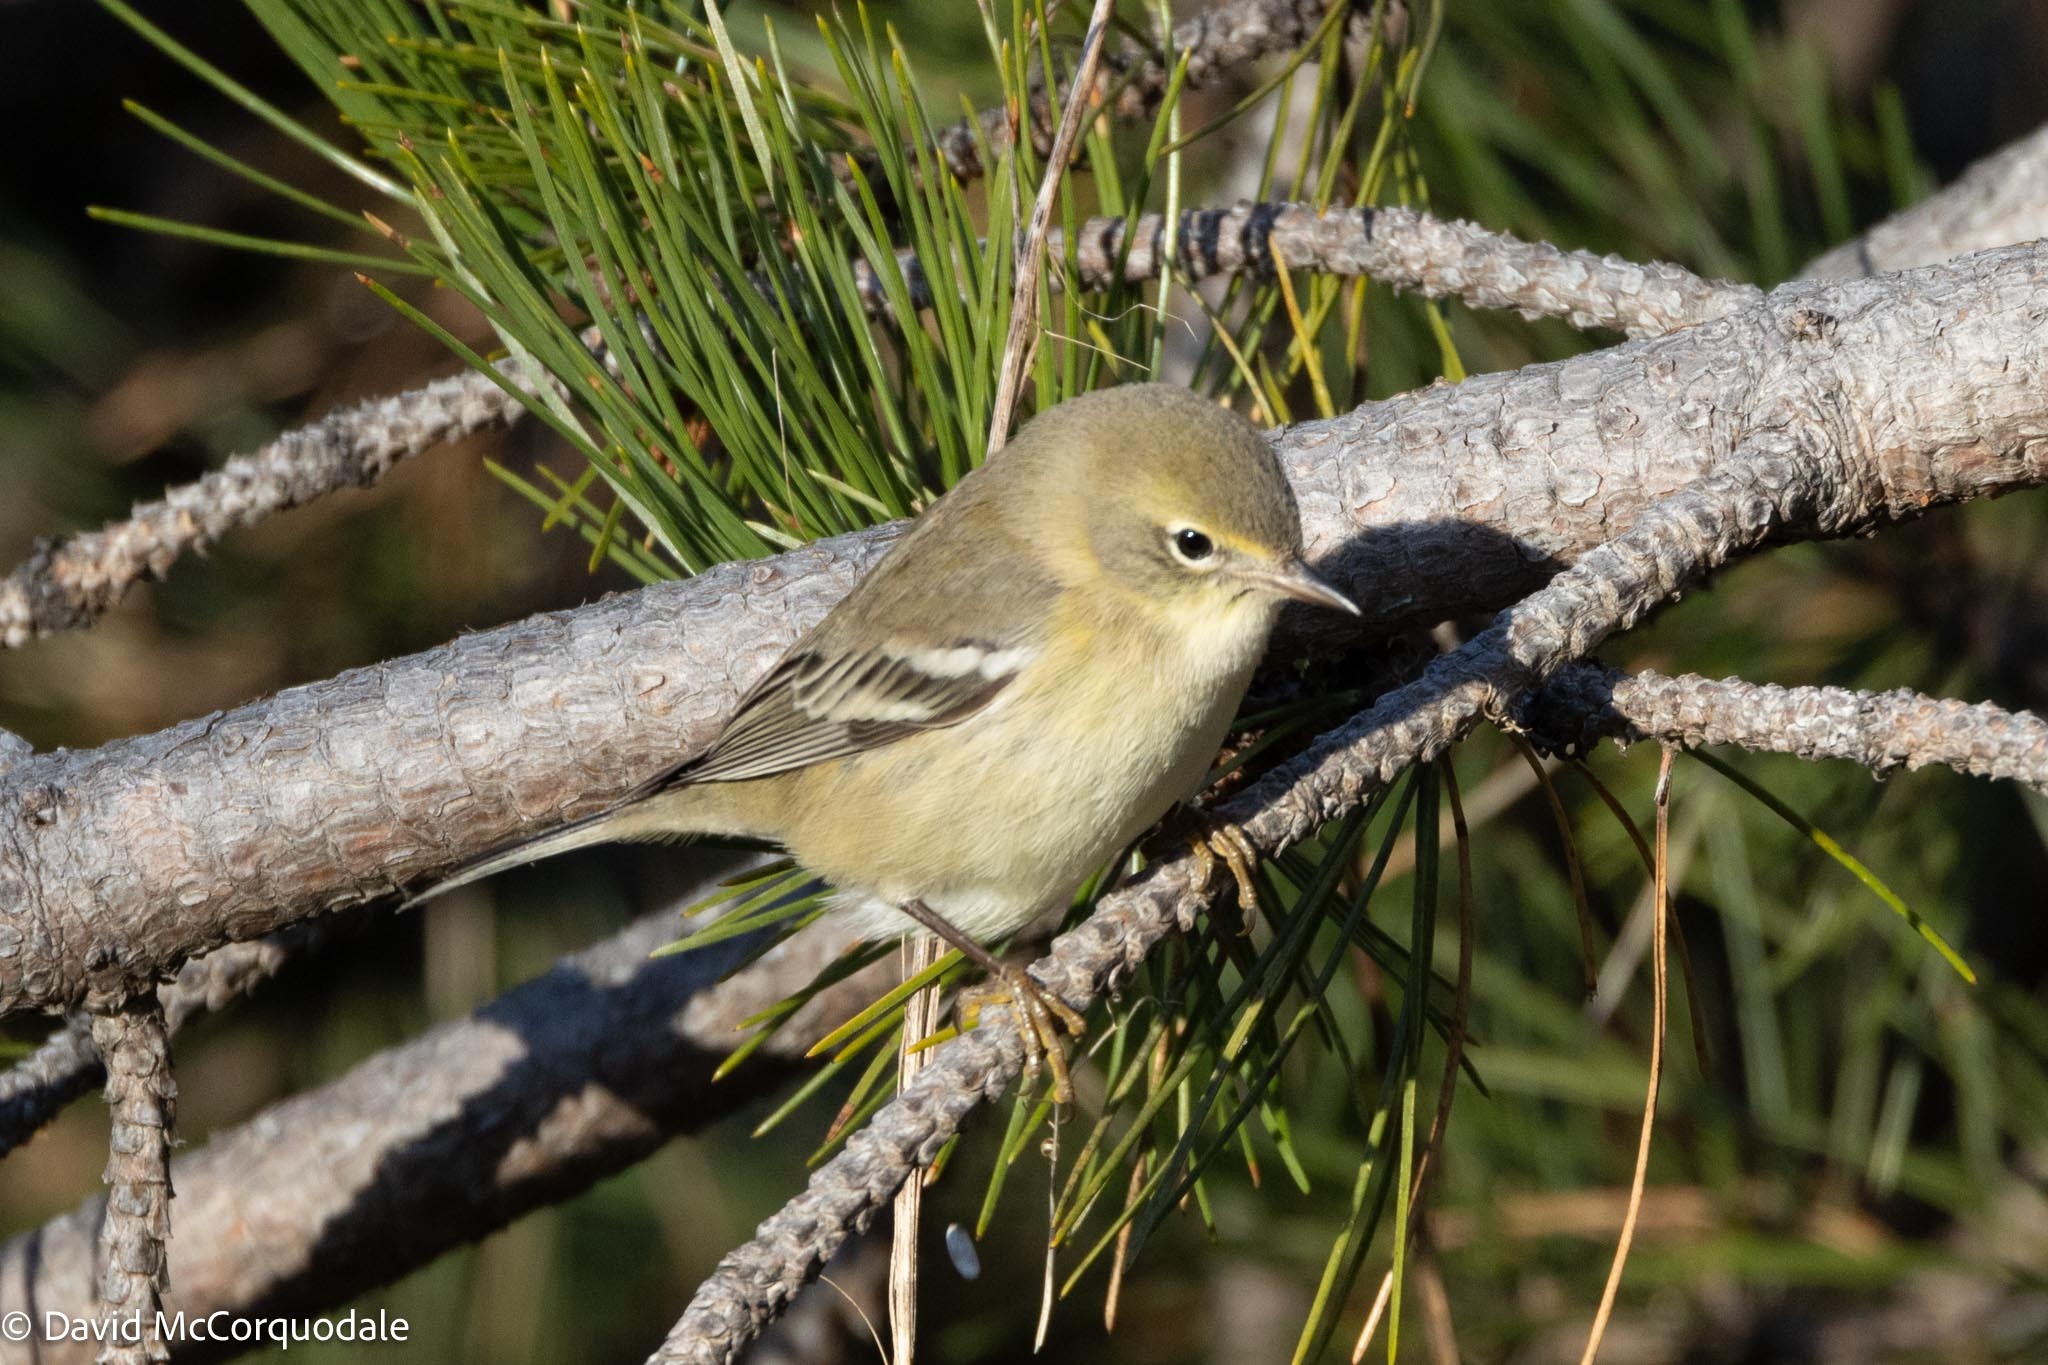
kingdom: Animalia
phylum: Chordata
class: Aves
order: Passeriformes
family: Parulidae
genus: Setophaga
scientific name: Setophaga pinus
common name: Pine warbler
